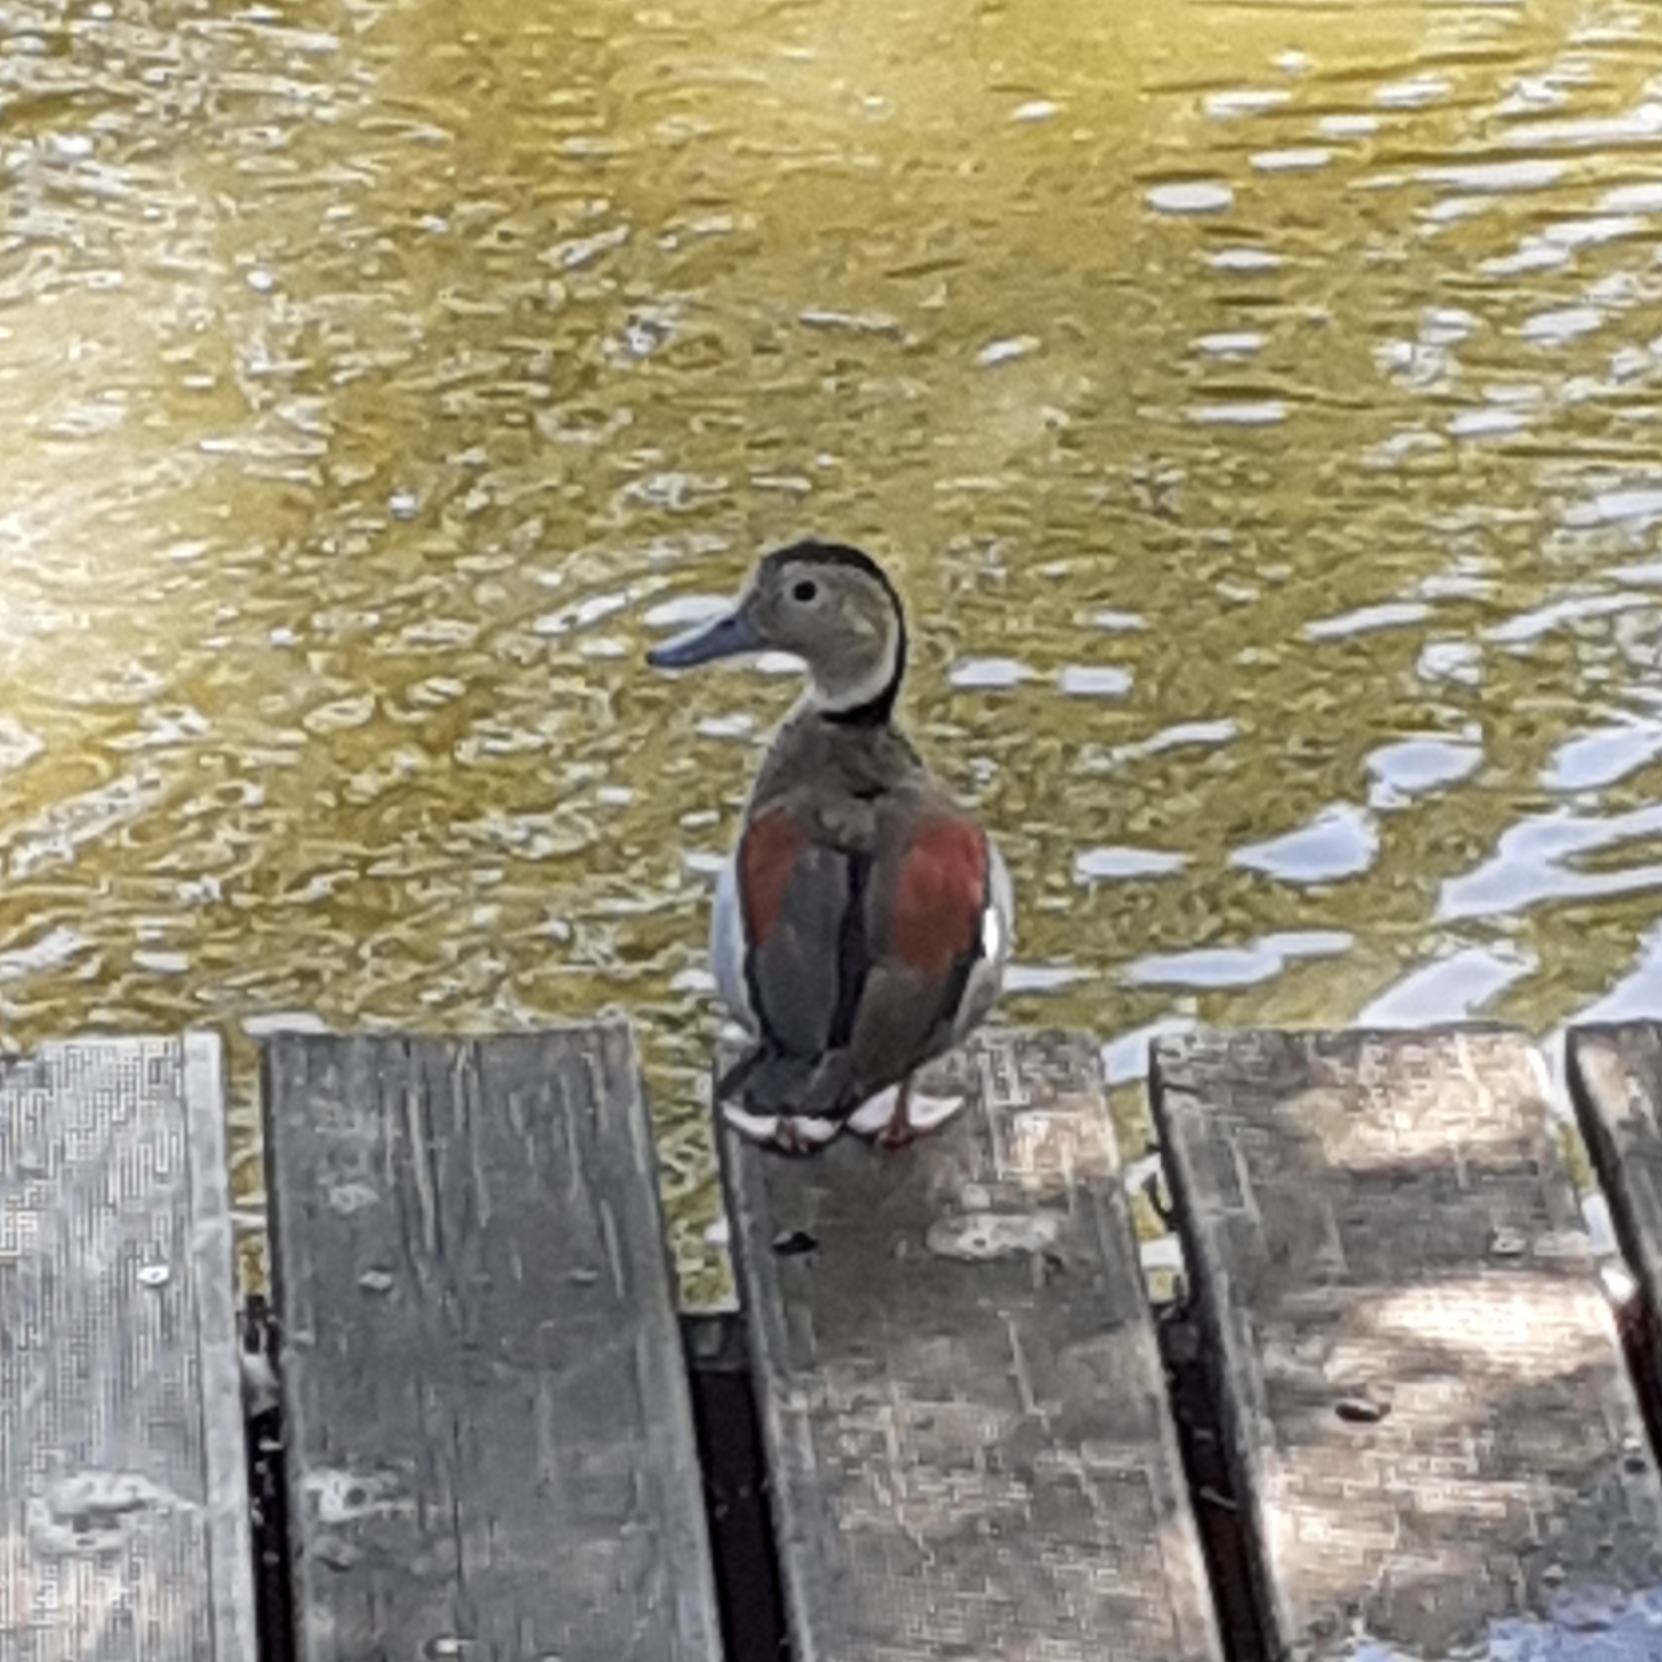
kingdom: Animalia
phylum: Chordata
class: Aves
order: Anseriformes
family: Anatidae
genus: Callonetta
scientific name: Callonetta leucophrys
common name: Ringed teal
